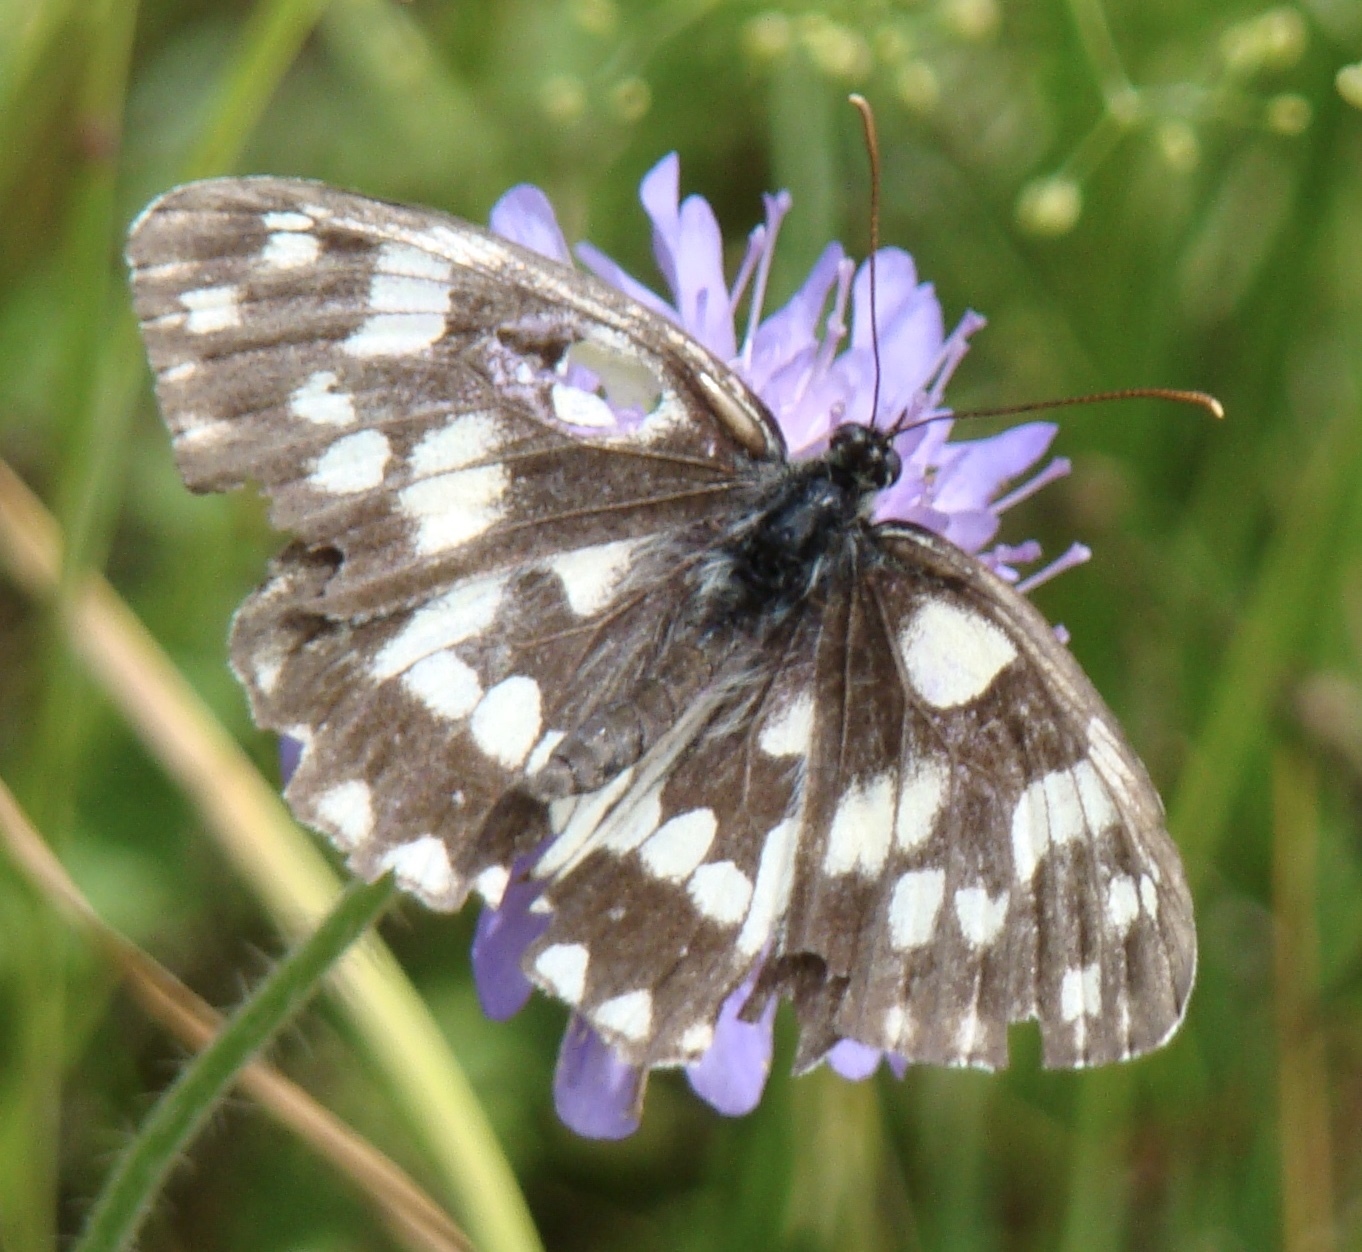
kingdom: Animalia
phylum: Arthropoda
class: Insecta
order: Lepidoptera
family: Nymphalidae
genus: Melanargia
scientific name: Melanargia galathea
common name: Marbled white
